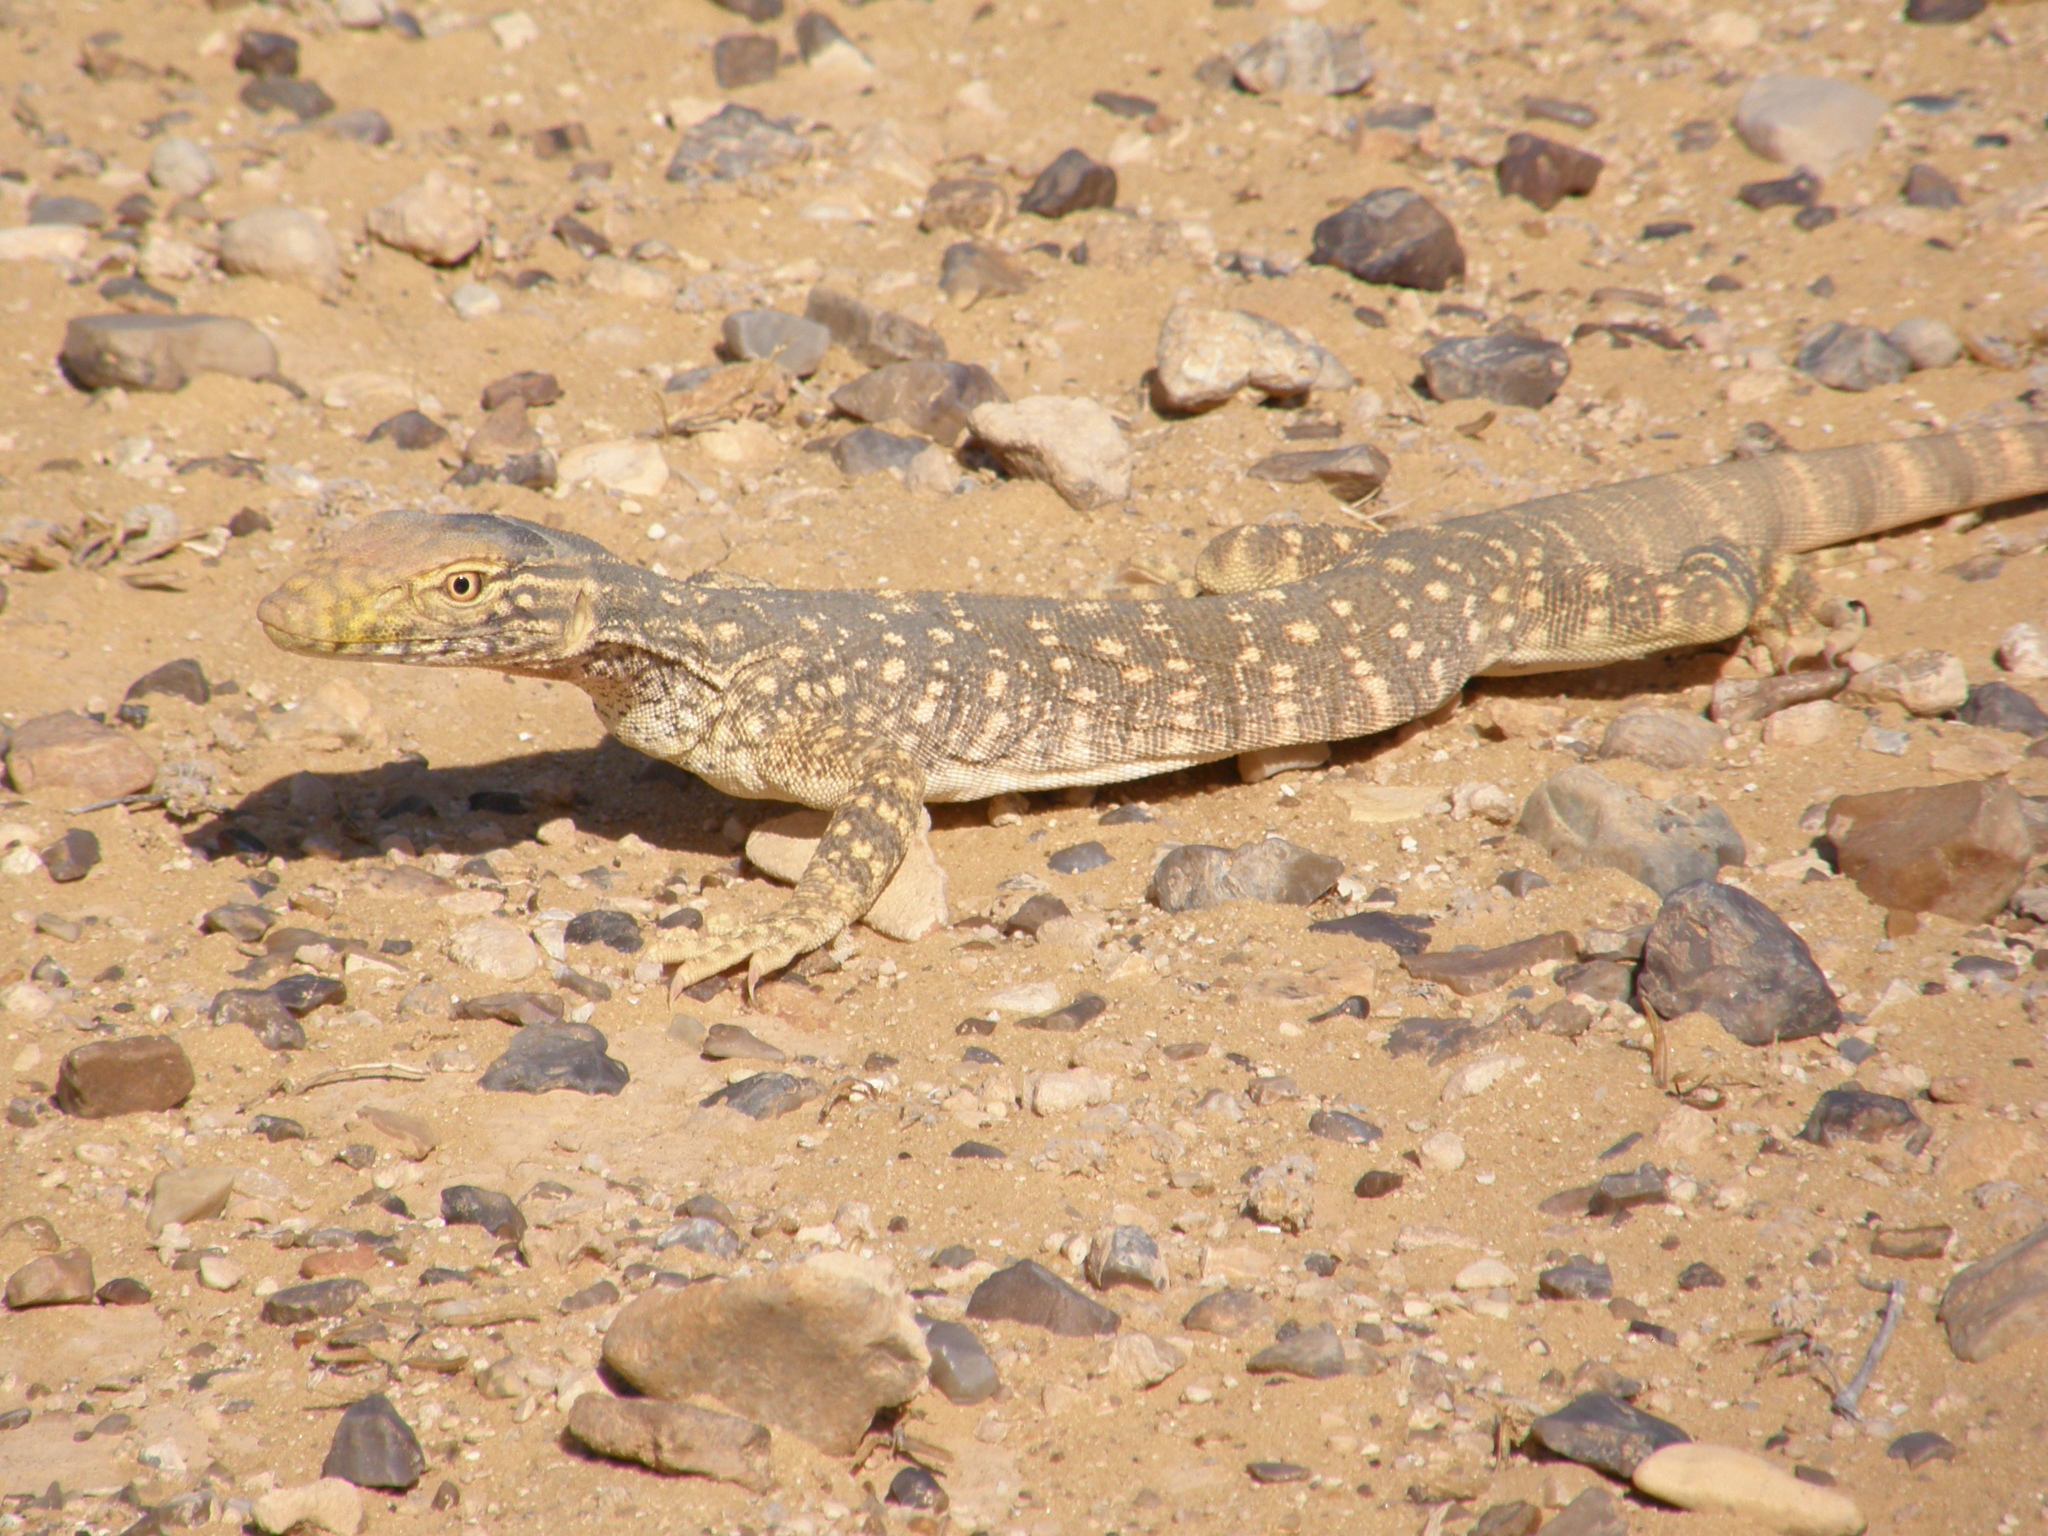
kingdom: Animalia
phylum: Chordata
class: Squamata
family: Varanidae
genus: Varanus
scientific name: Varanus griseus
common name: Desert monitor
